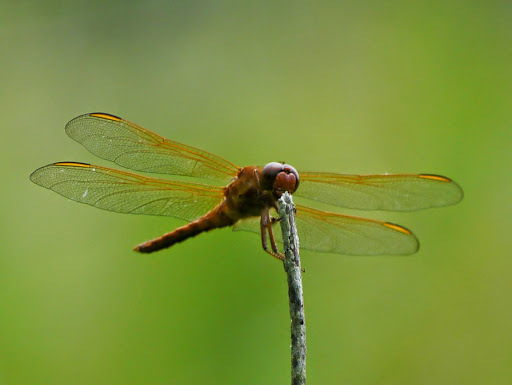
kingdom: Animalia
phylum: Arthropoda
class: Insecta
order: Odonata
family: Libellulidae
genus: Libellula
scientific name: Libellula needhami
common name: Needham's skimmer
